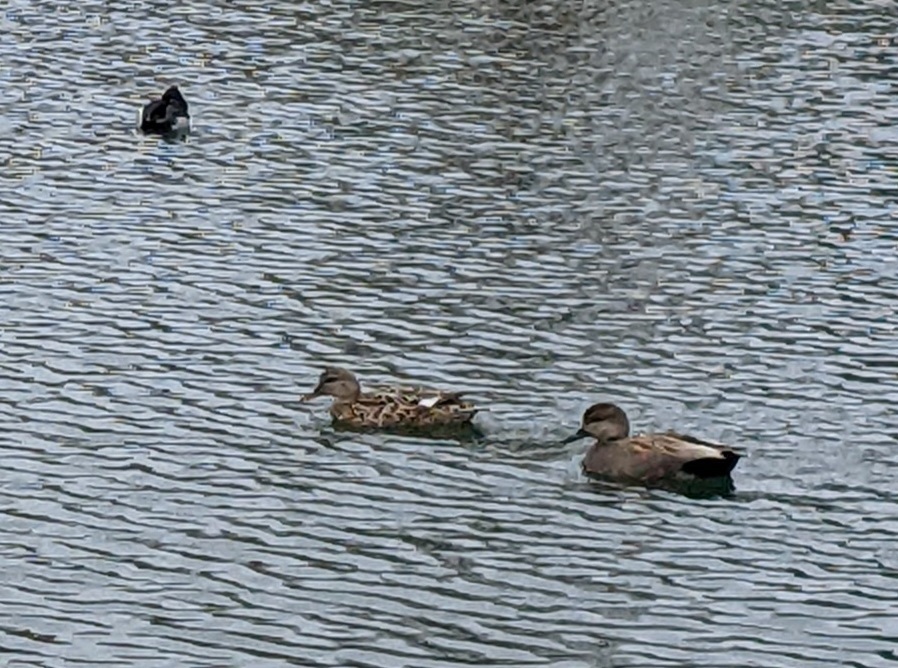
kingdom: Animalia
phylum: Chordata
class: Aves
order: Anseriformes
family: Anatidae
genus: Mareca
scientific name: Mareca strepera
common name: Gadwall
